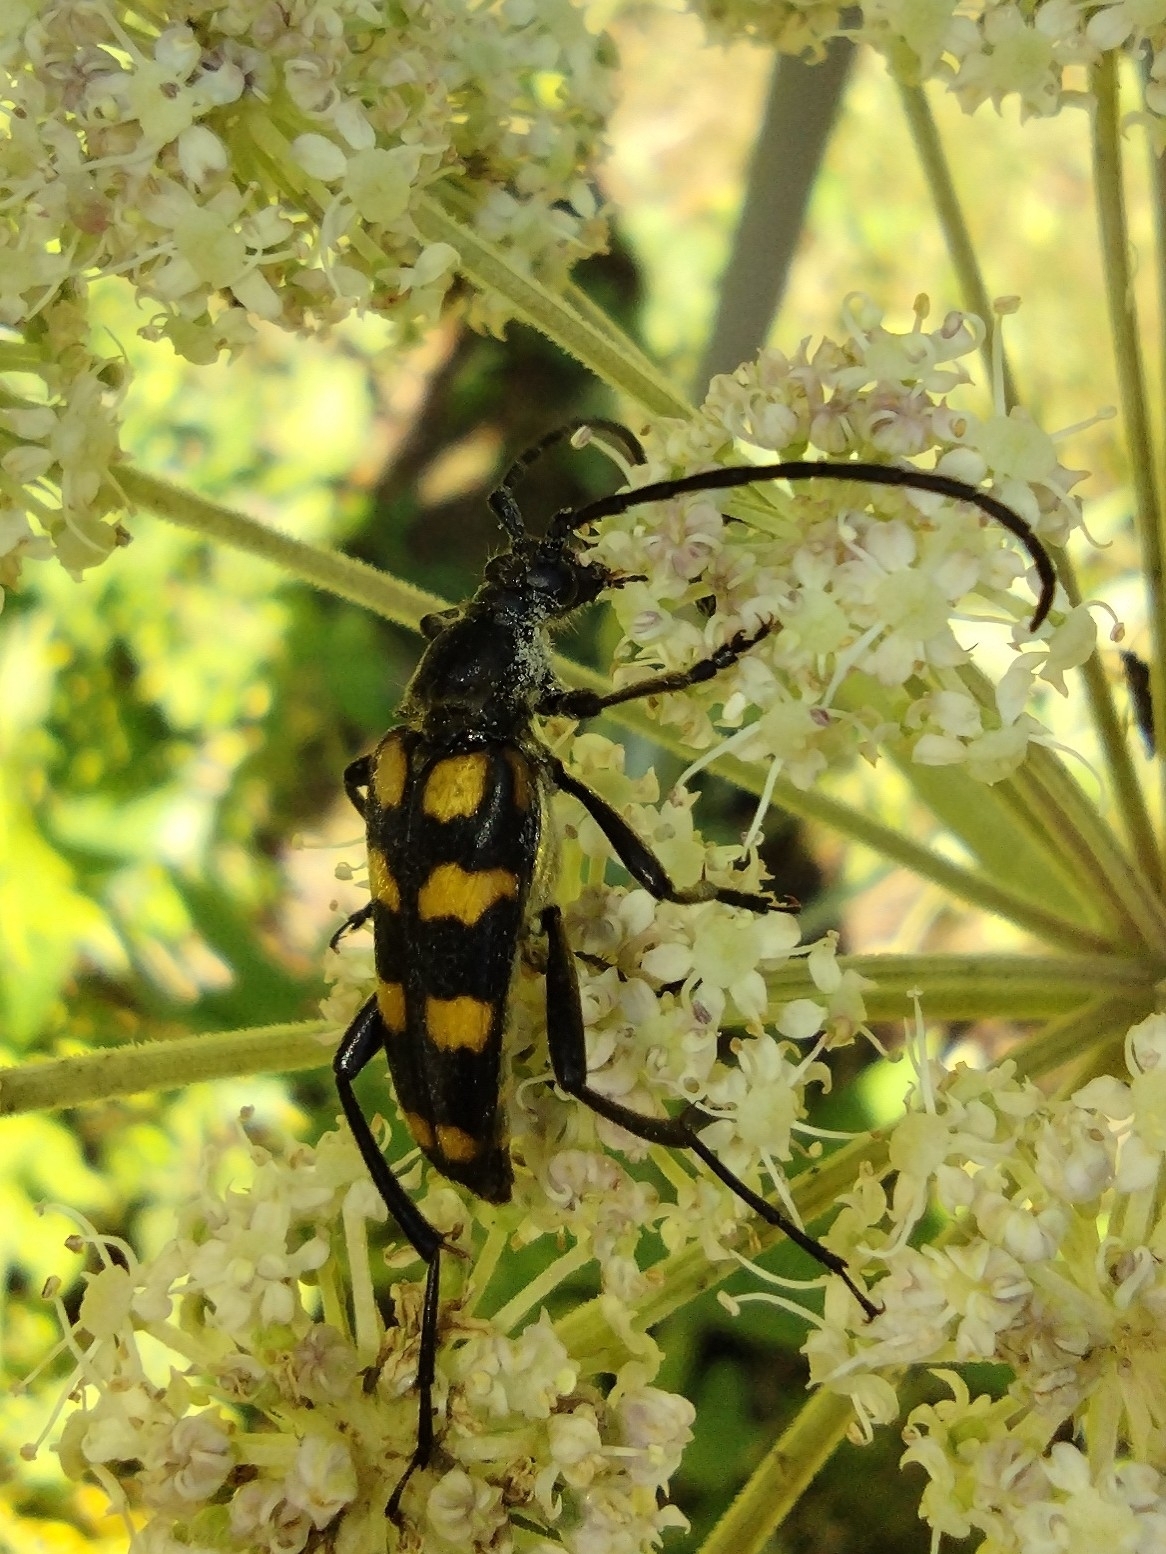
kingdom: Animalia
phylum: Arthropoda
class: Insecta
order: Coleoptera
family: Cerambycidae
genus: Leptura
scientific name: Leptura quadrifasciata
